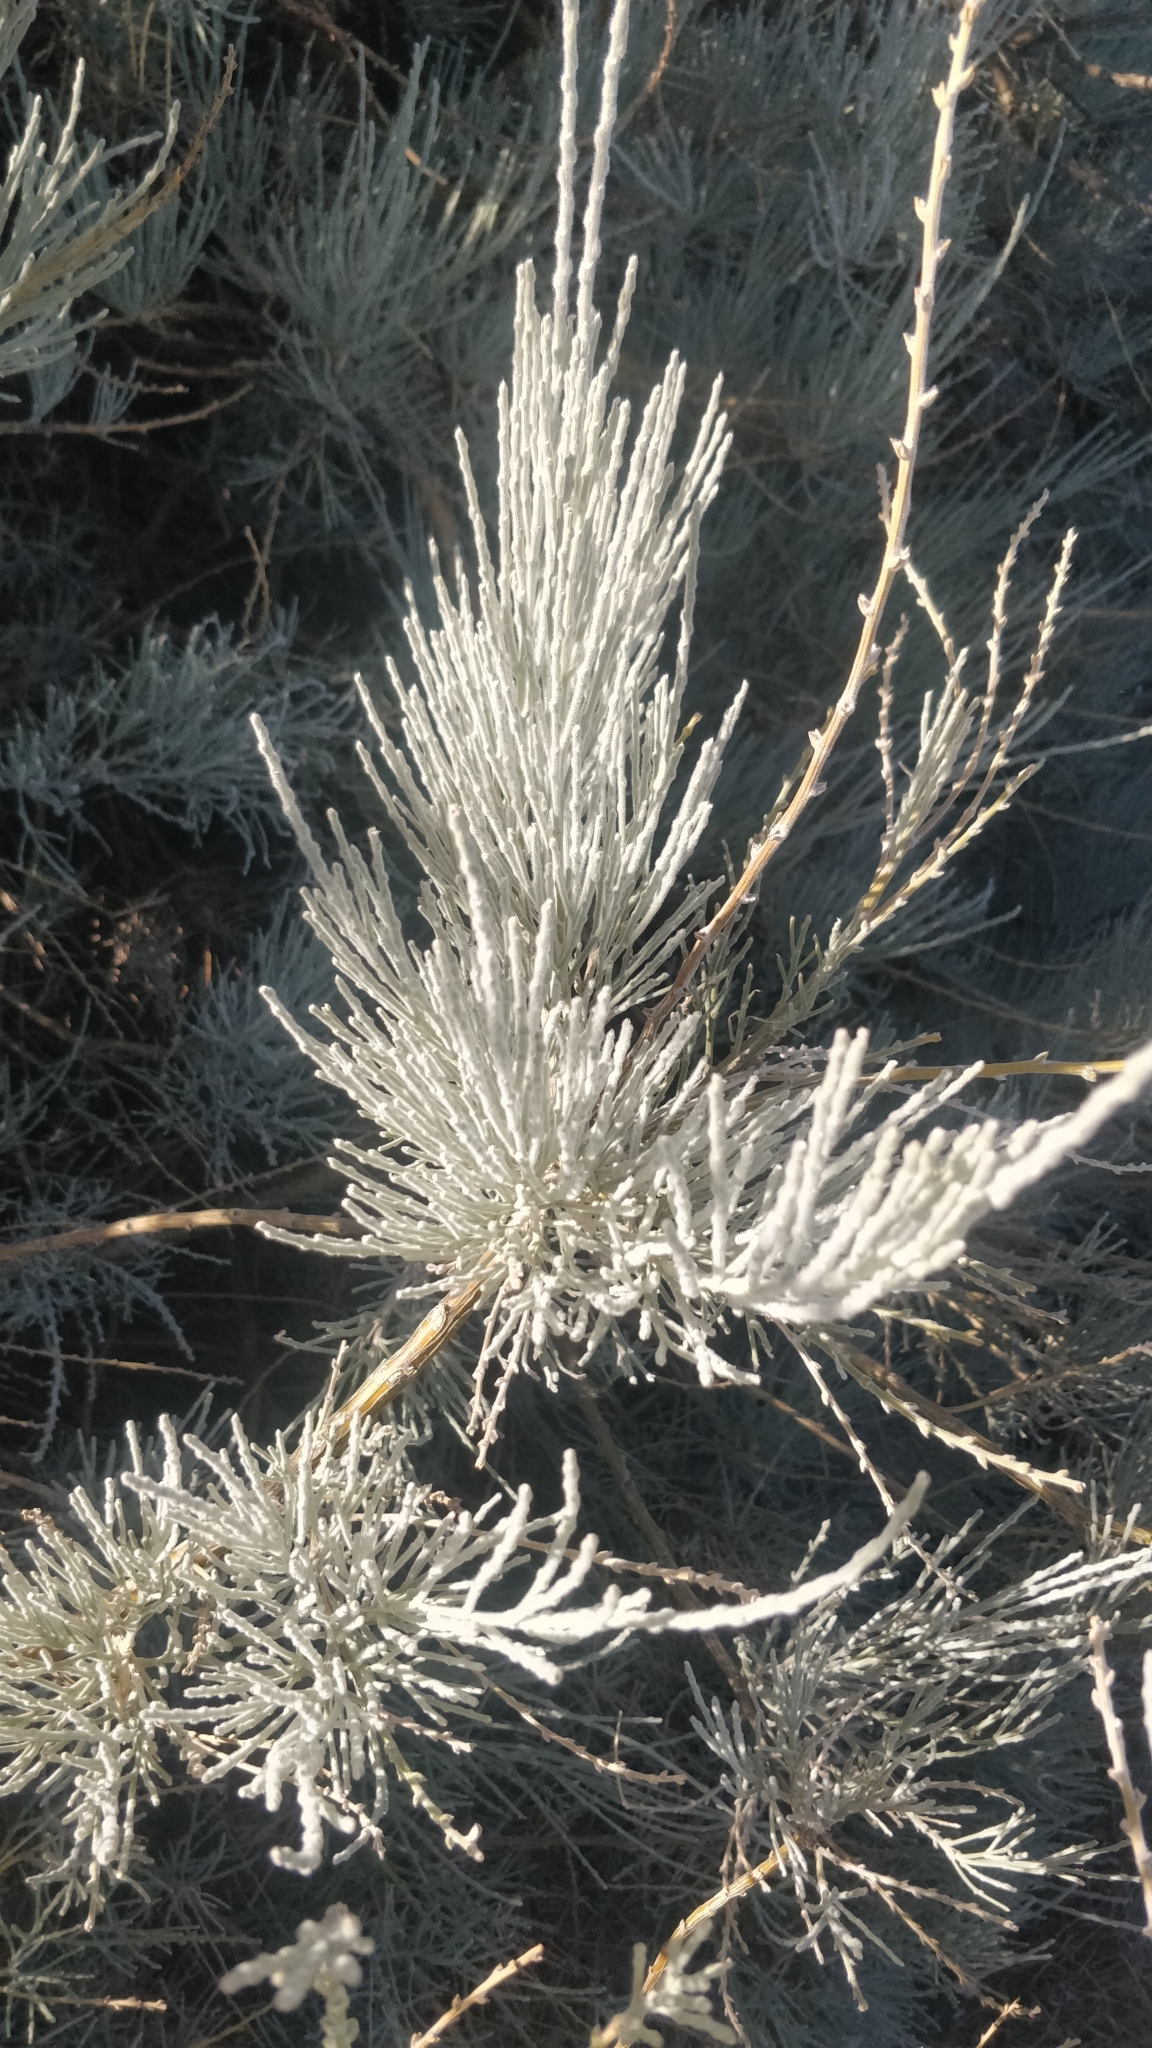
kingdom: Plantae
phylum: Tracheophyta
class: Magnoliopsida
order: Fabales
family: Fabaceae
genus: Genista
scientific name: Genista benehoavensis
